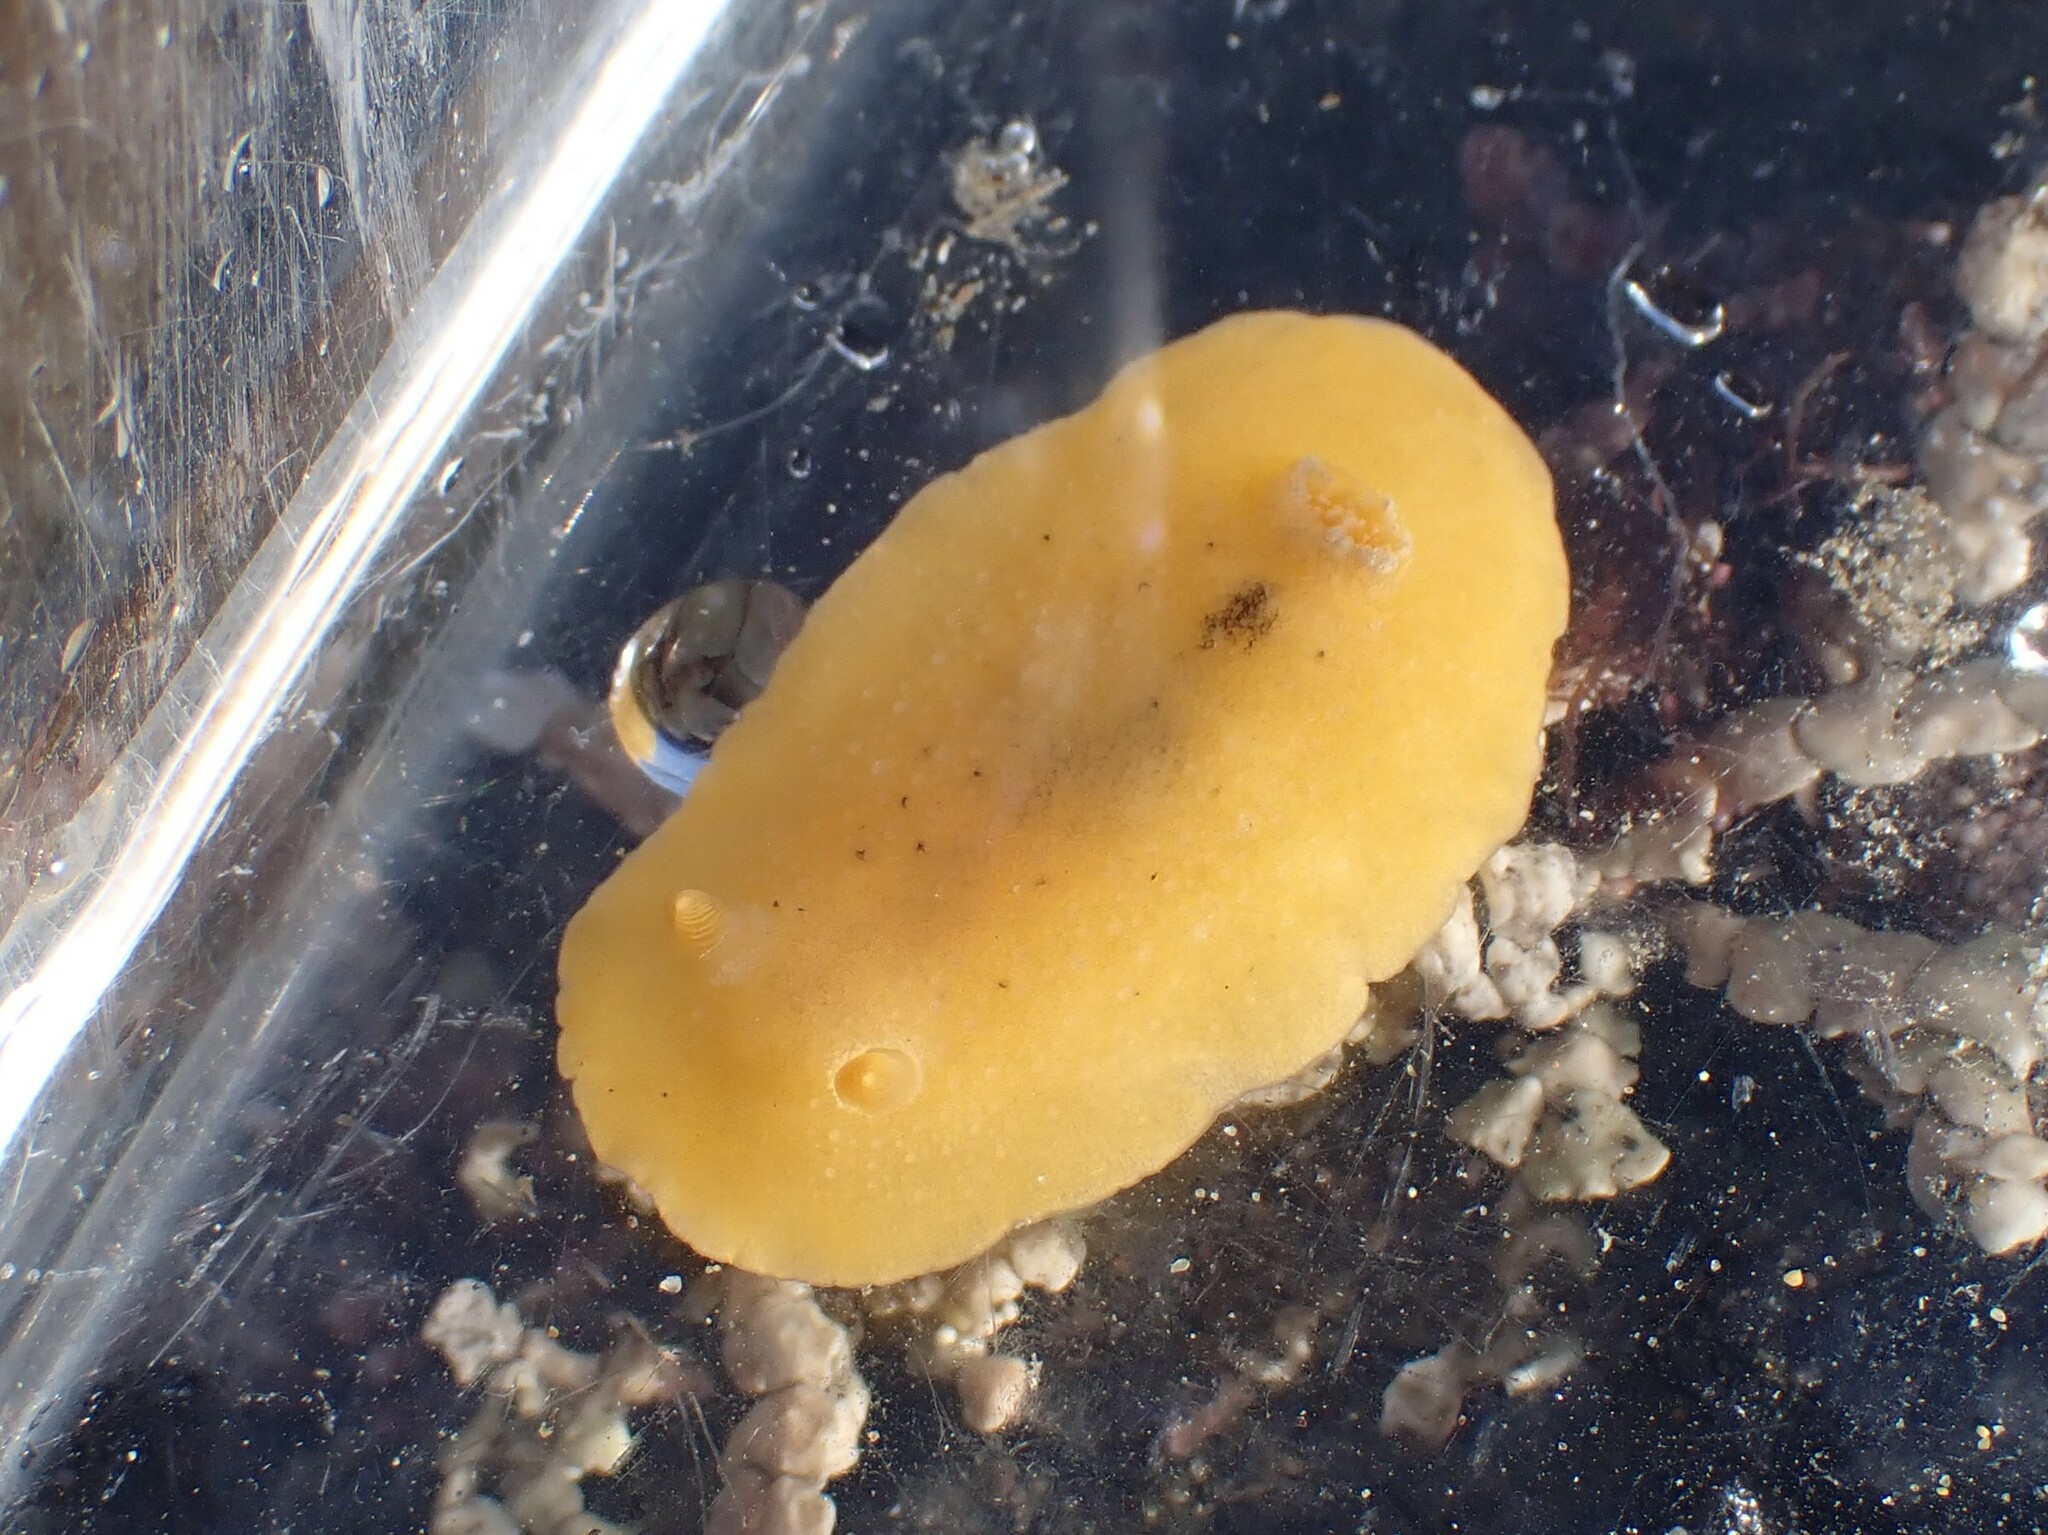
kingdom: Animalia
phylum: Mollusca
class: Gastropoda
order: Nudibranchia
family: Discodorididae
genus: Geitodoris
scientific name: Geitodoris heathi
